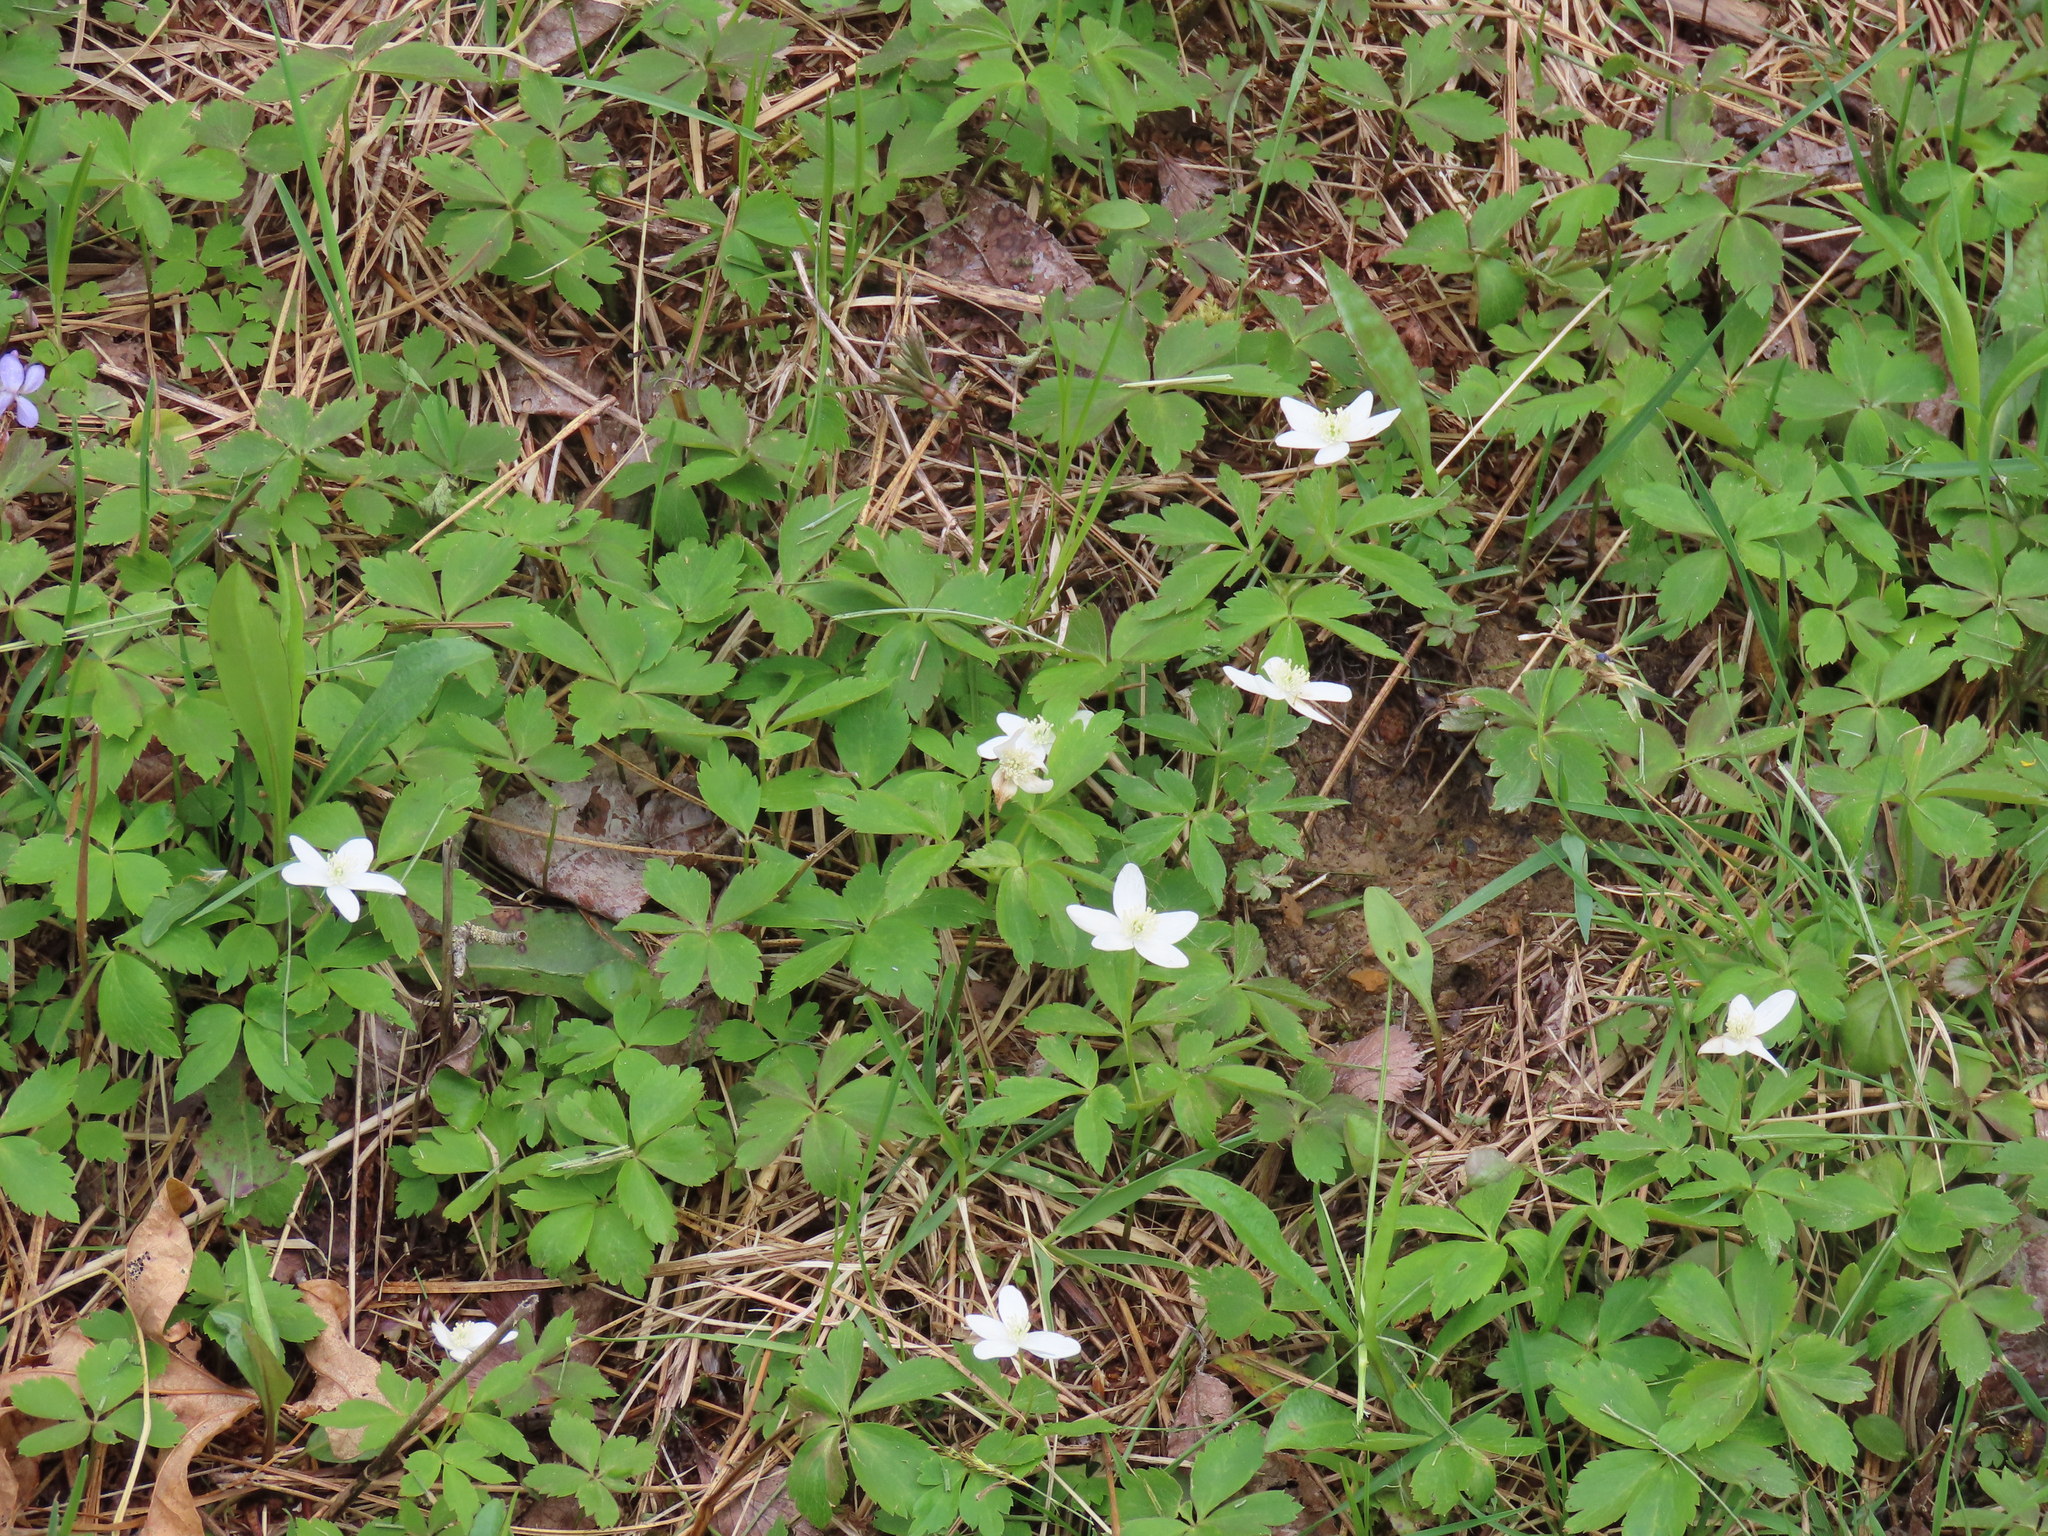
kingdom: Plantae
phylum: Tracheophyta
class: Magnoliopsida
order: Ranunculales
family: Ranunculaceae
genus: Anemone
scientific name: Anemone quinquefolia
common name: Wood anemone
